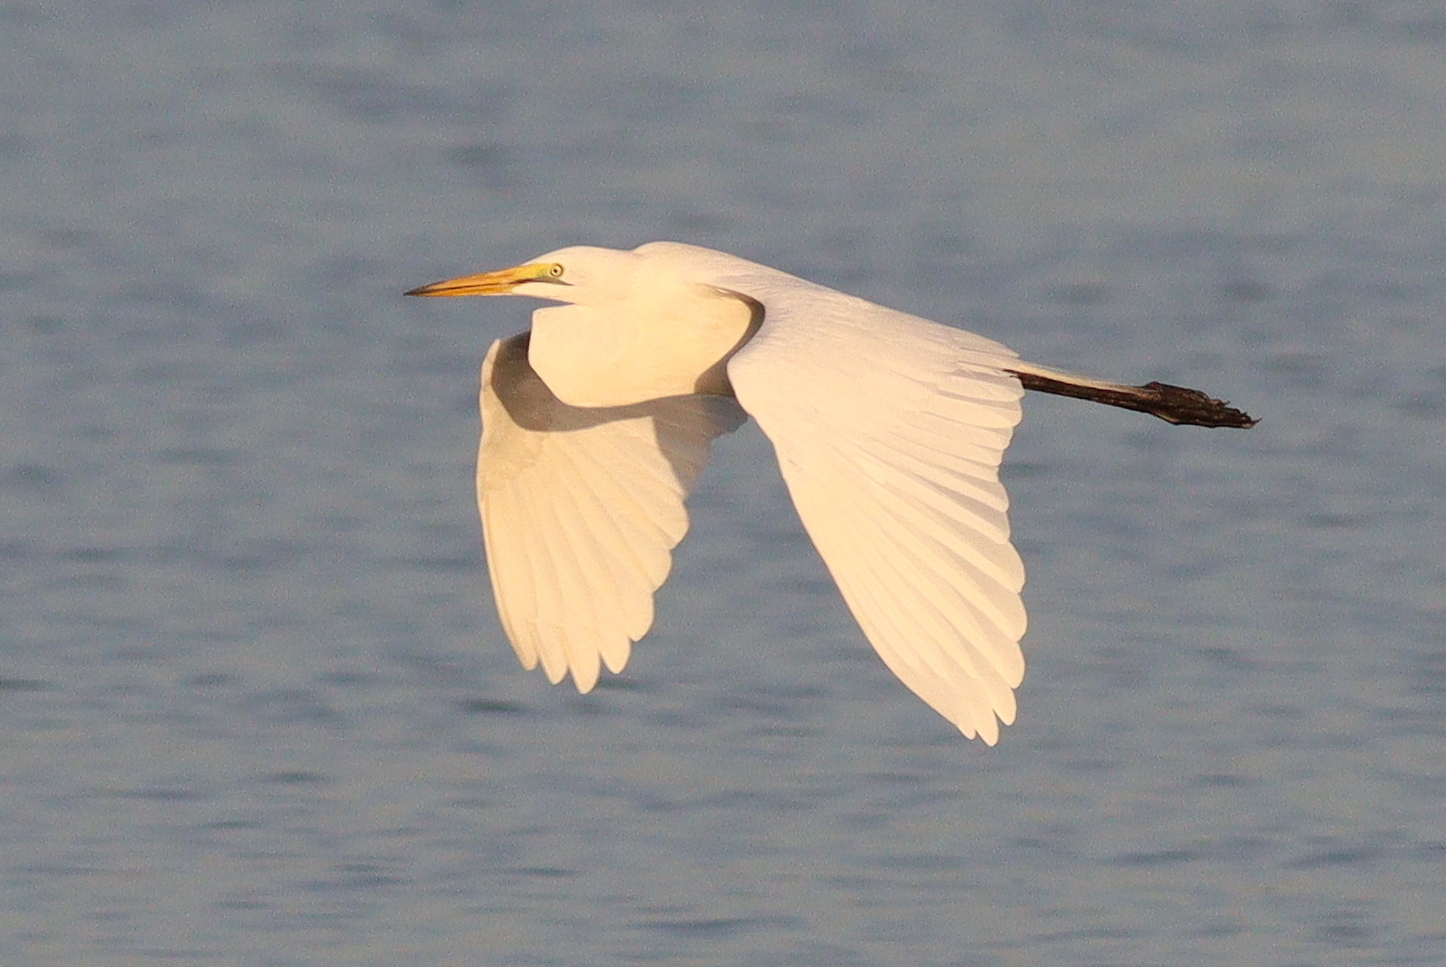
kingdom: Animalia
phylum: Chordata
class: Aves
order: Pelecaniformes
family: Ardeidae
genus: Ardea
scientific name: Ardea alba
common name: Great egret
